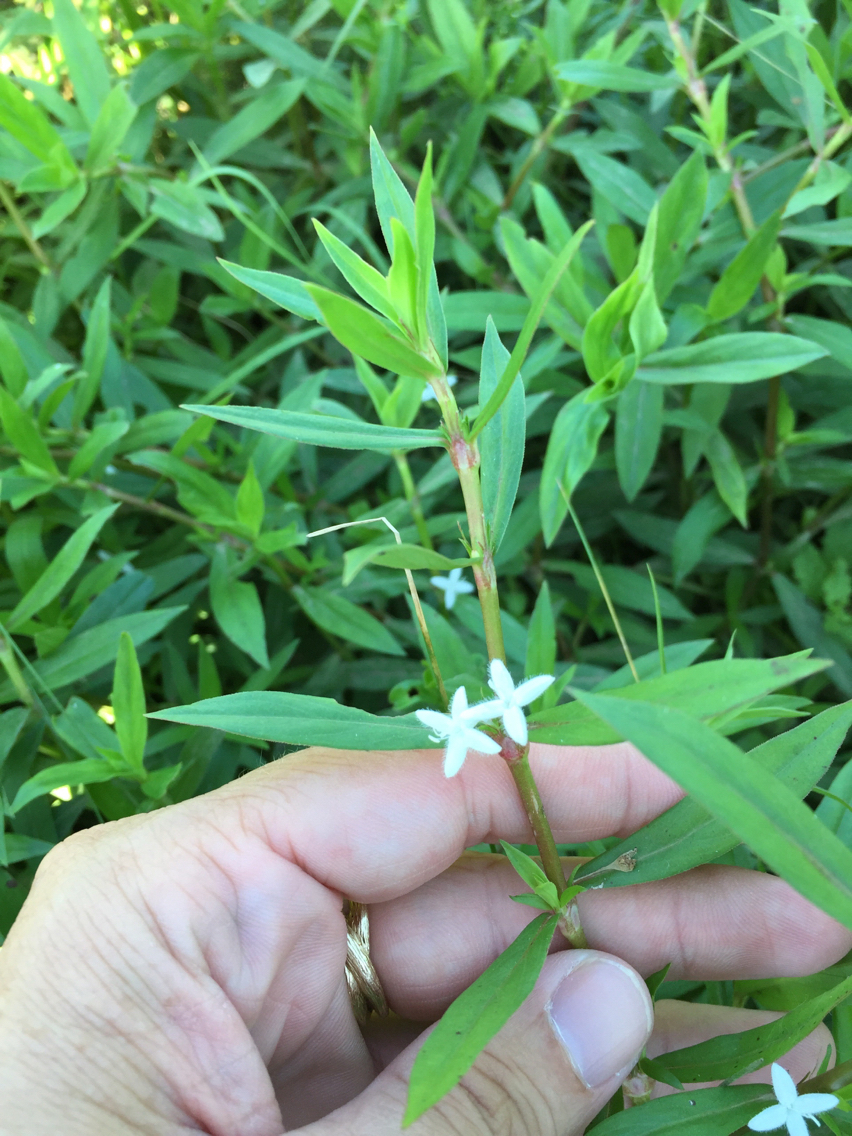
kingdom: Plantae
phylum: Tracheophyta
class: Magnoliopsida
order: Gentianales
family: Rubiaceae
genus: Diodia
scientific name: Diodia virginiana
